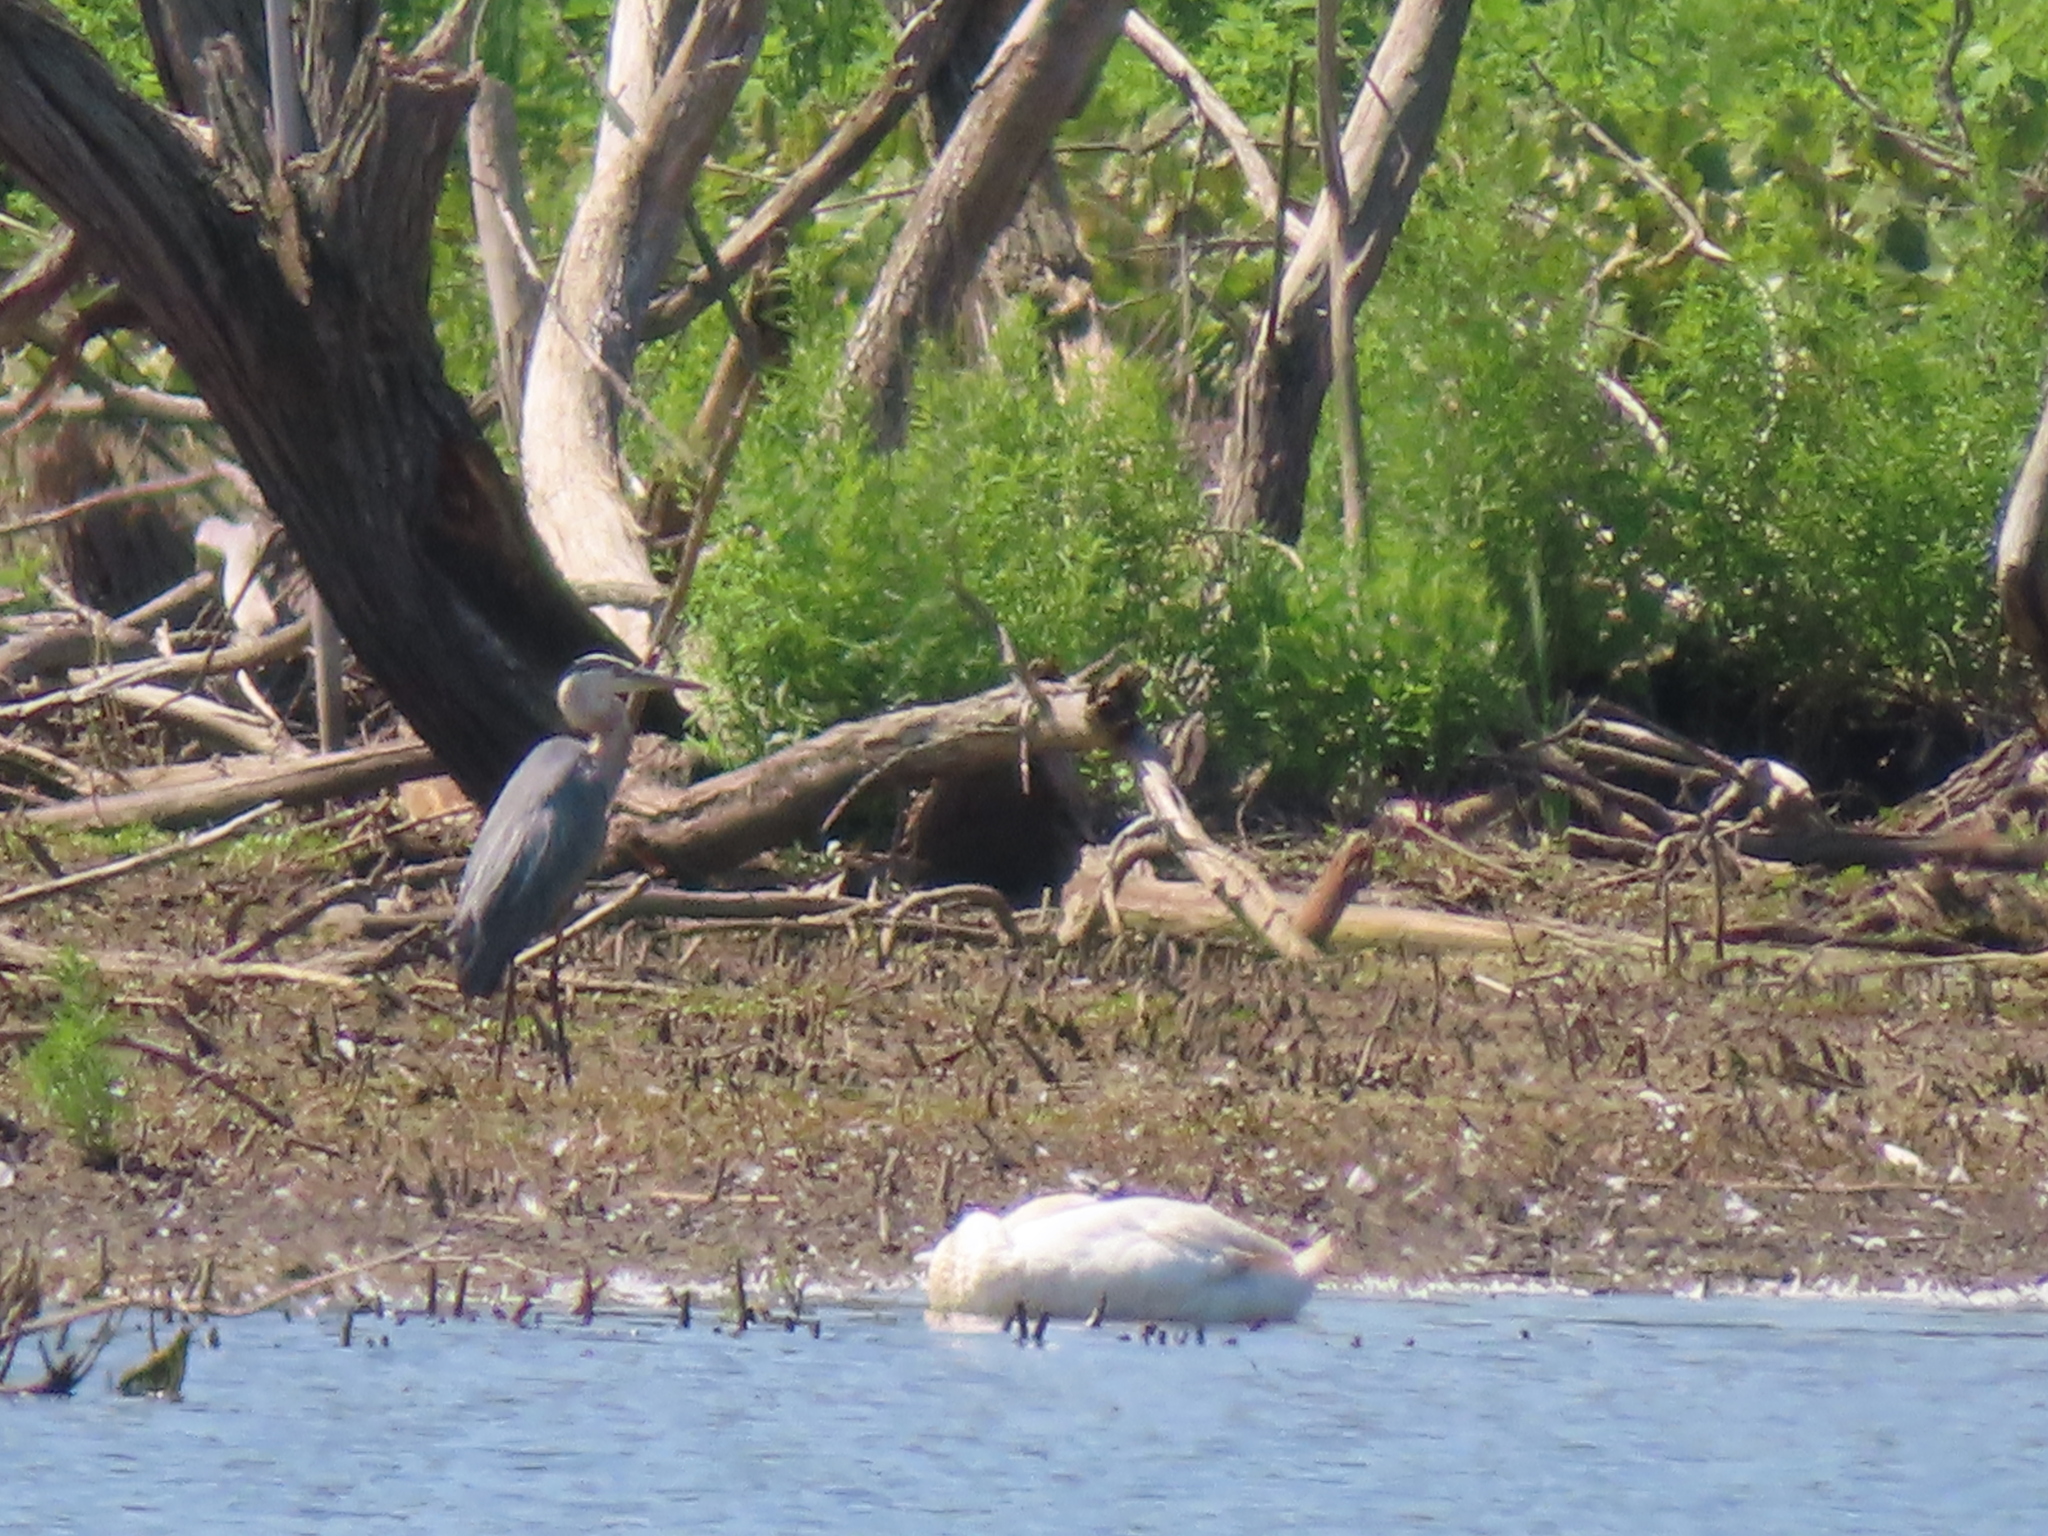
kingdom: Animalia
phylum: Chordata
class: Aves
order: Pelecaniformes
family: Ardeidae
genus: Ardea
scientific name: Ardea herodias
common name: Great blue heron
